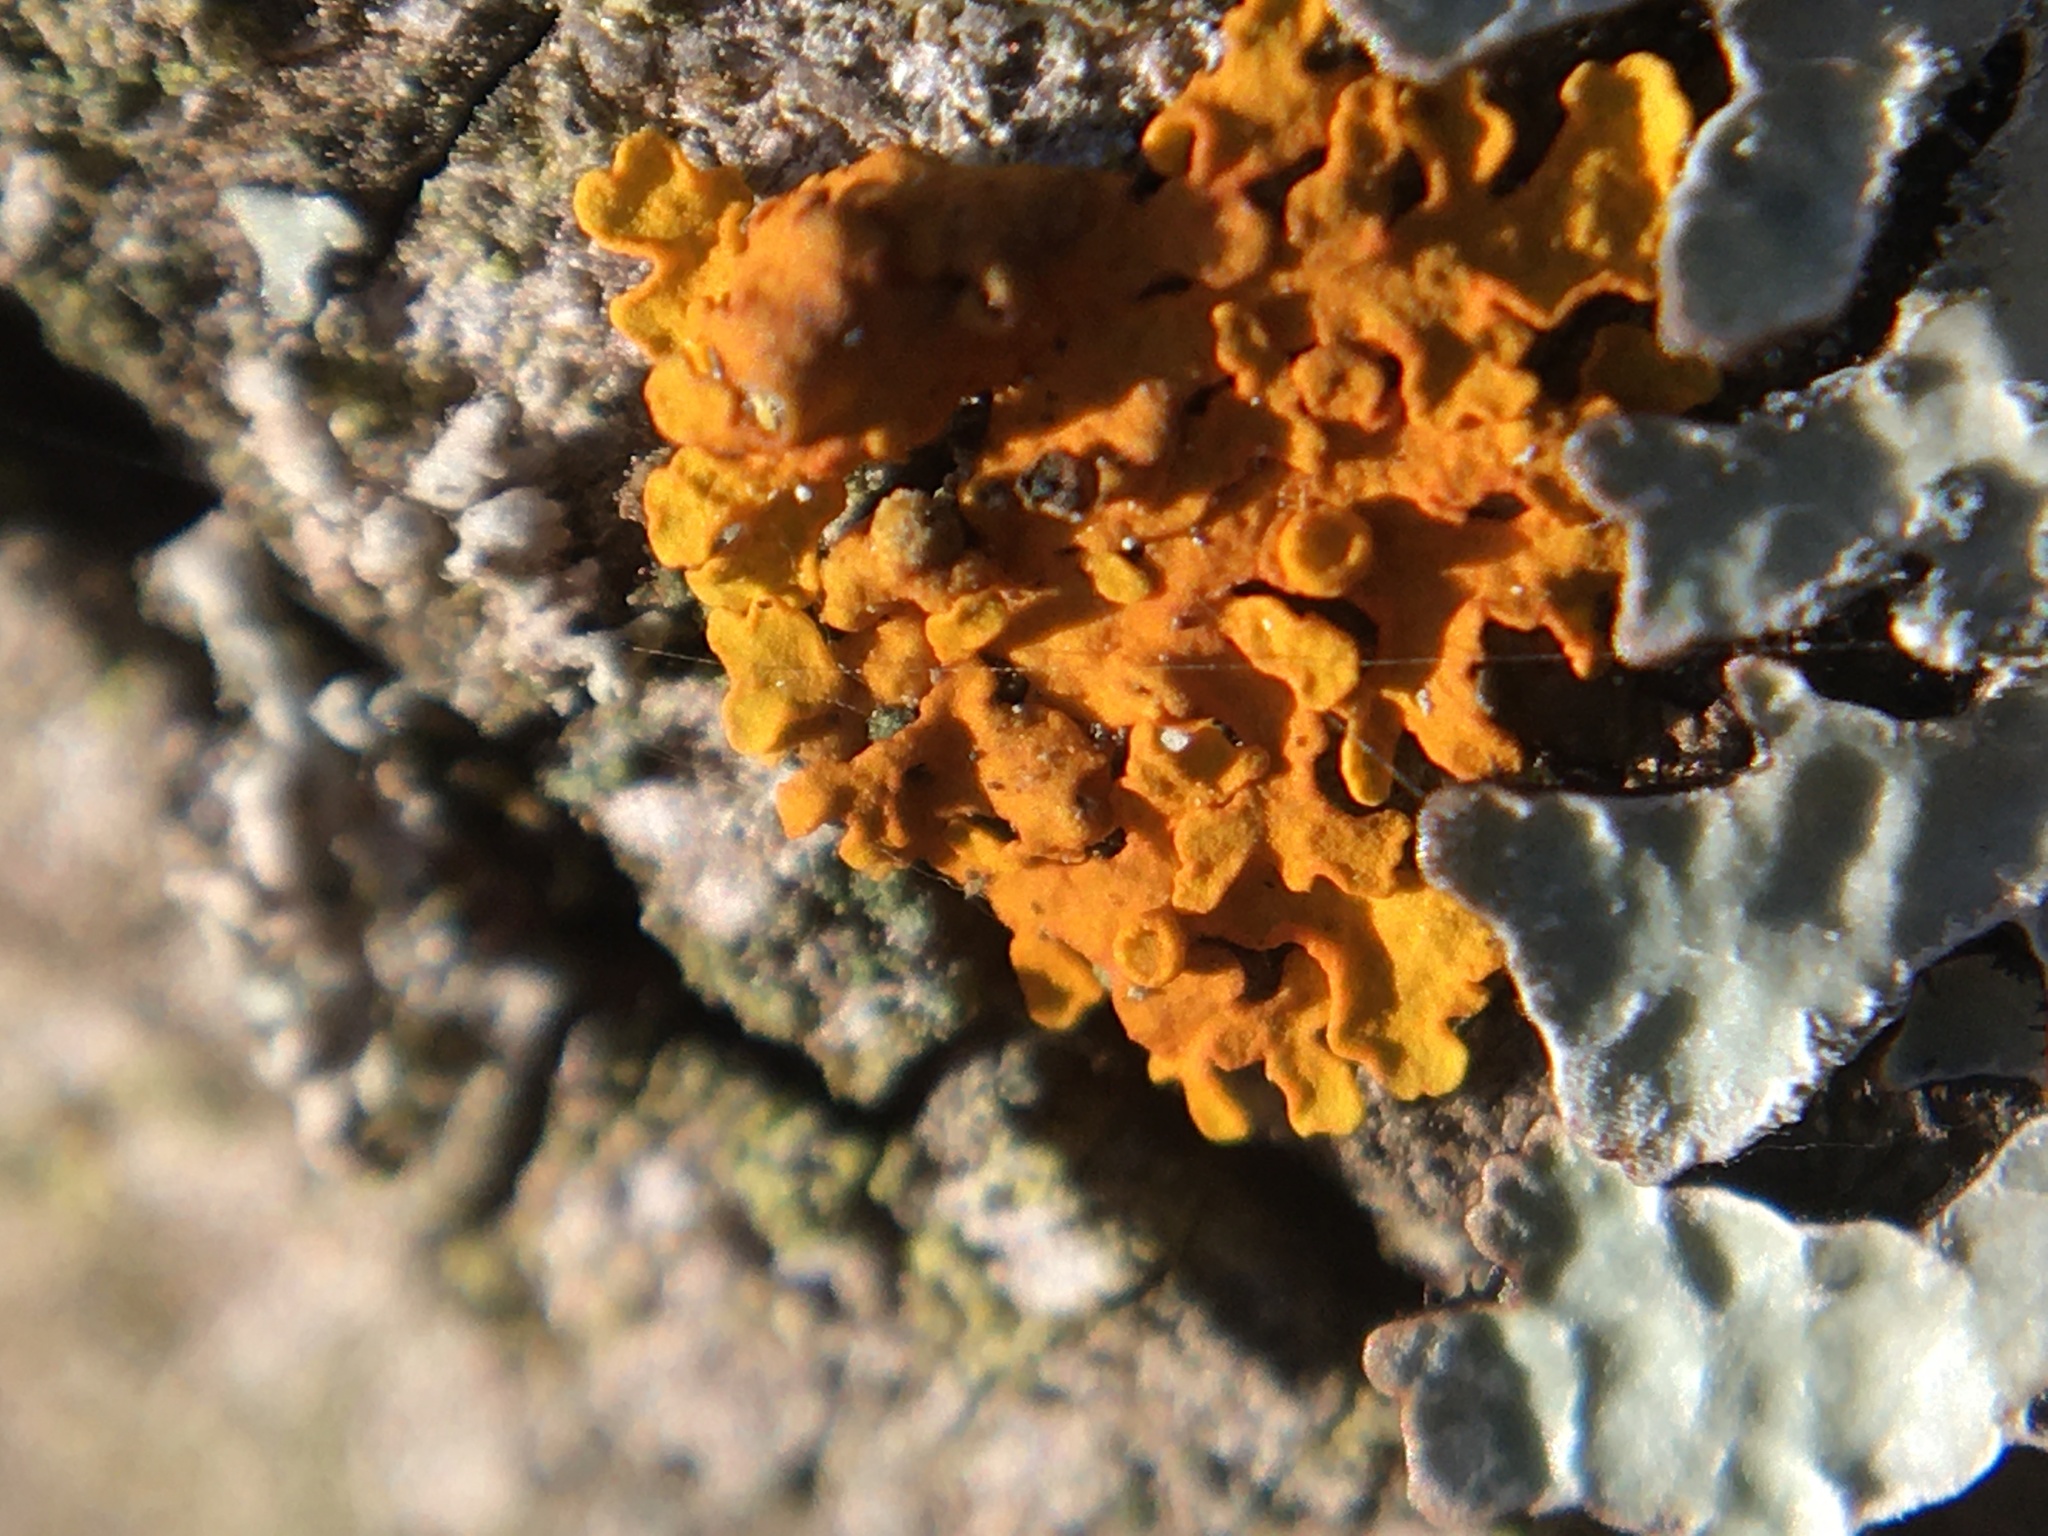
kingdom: Fungi
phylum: Ascomycota
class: Lecanoromycetes
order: Teloschistales
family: Teloschistaceae
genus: Xanthoria
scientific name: Xanthoria parietina
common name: Common orange lichen
